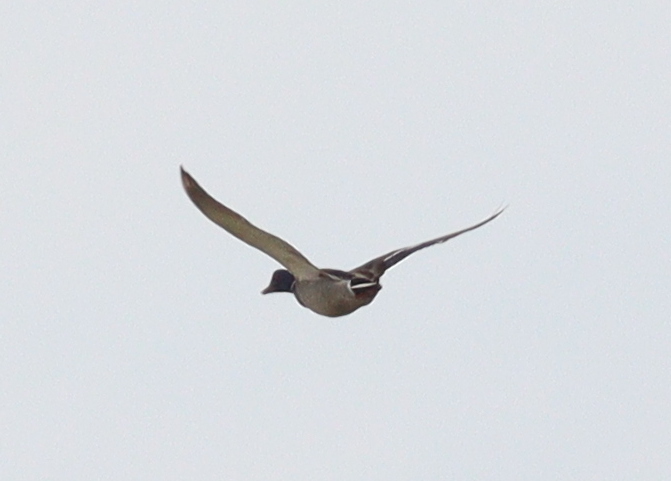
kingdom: Animalia
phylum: Chordata
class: Aves
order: Anseriformes
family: Anatidae
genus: Anas
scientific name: Anas platyrhynchos
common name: Mallard
